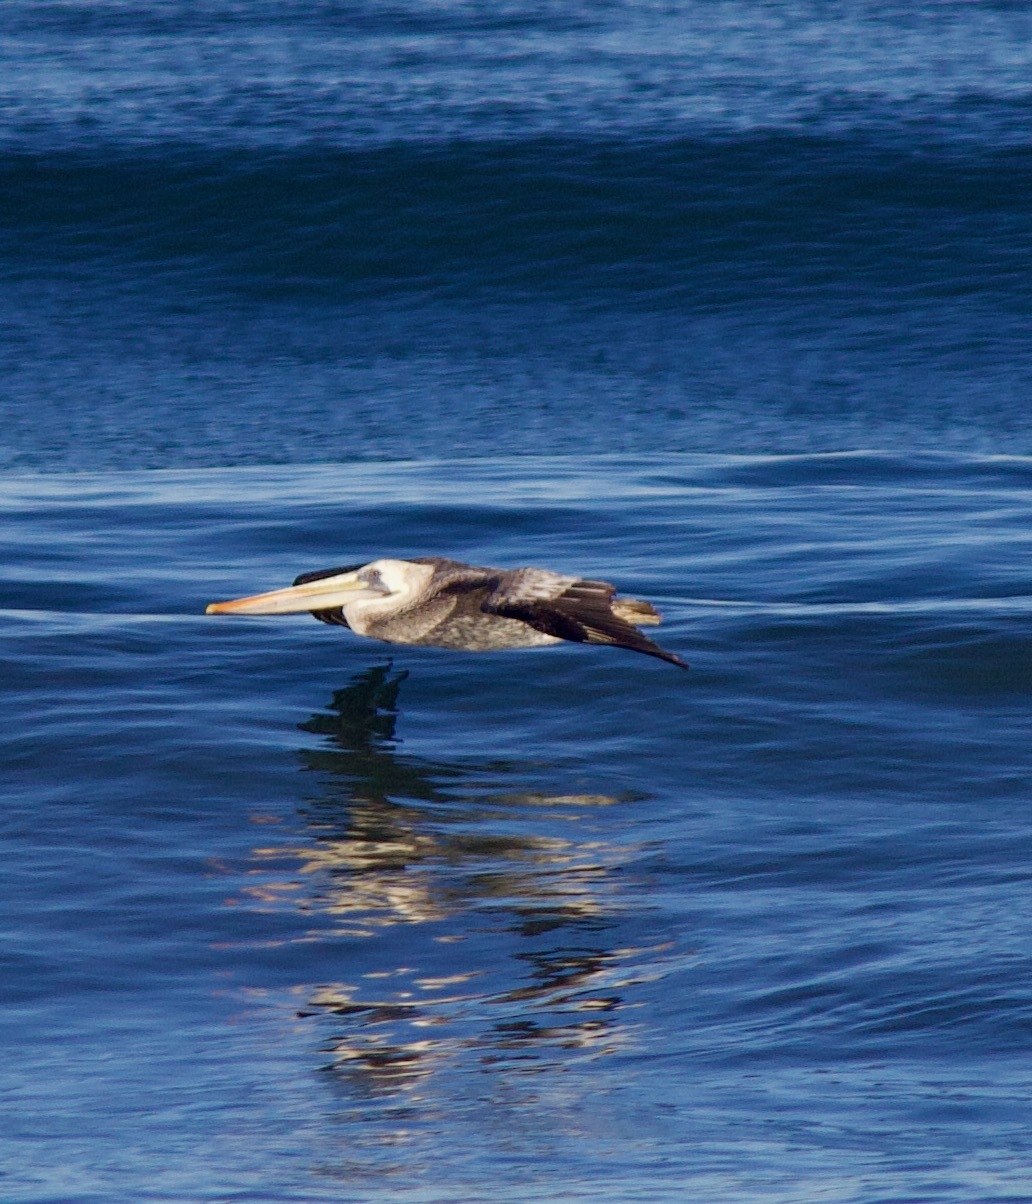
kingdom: Animalia
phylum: Chordata
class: Aves
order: Pelecaniformes
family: Pelecanidae
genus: Pelecanus
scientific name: Pelecanus thagus
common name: Peruvian pelican
